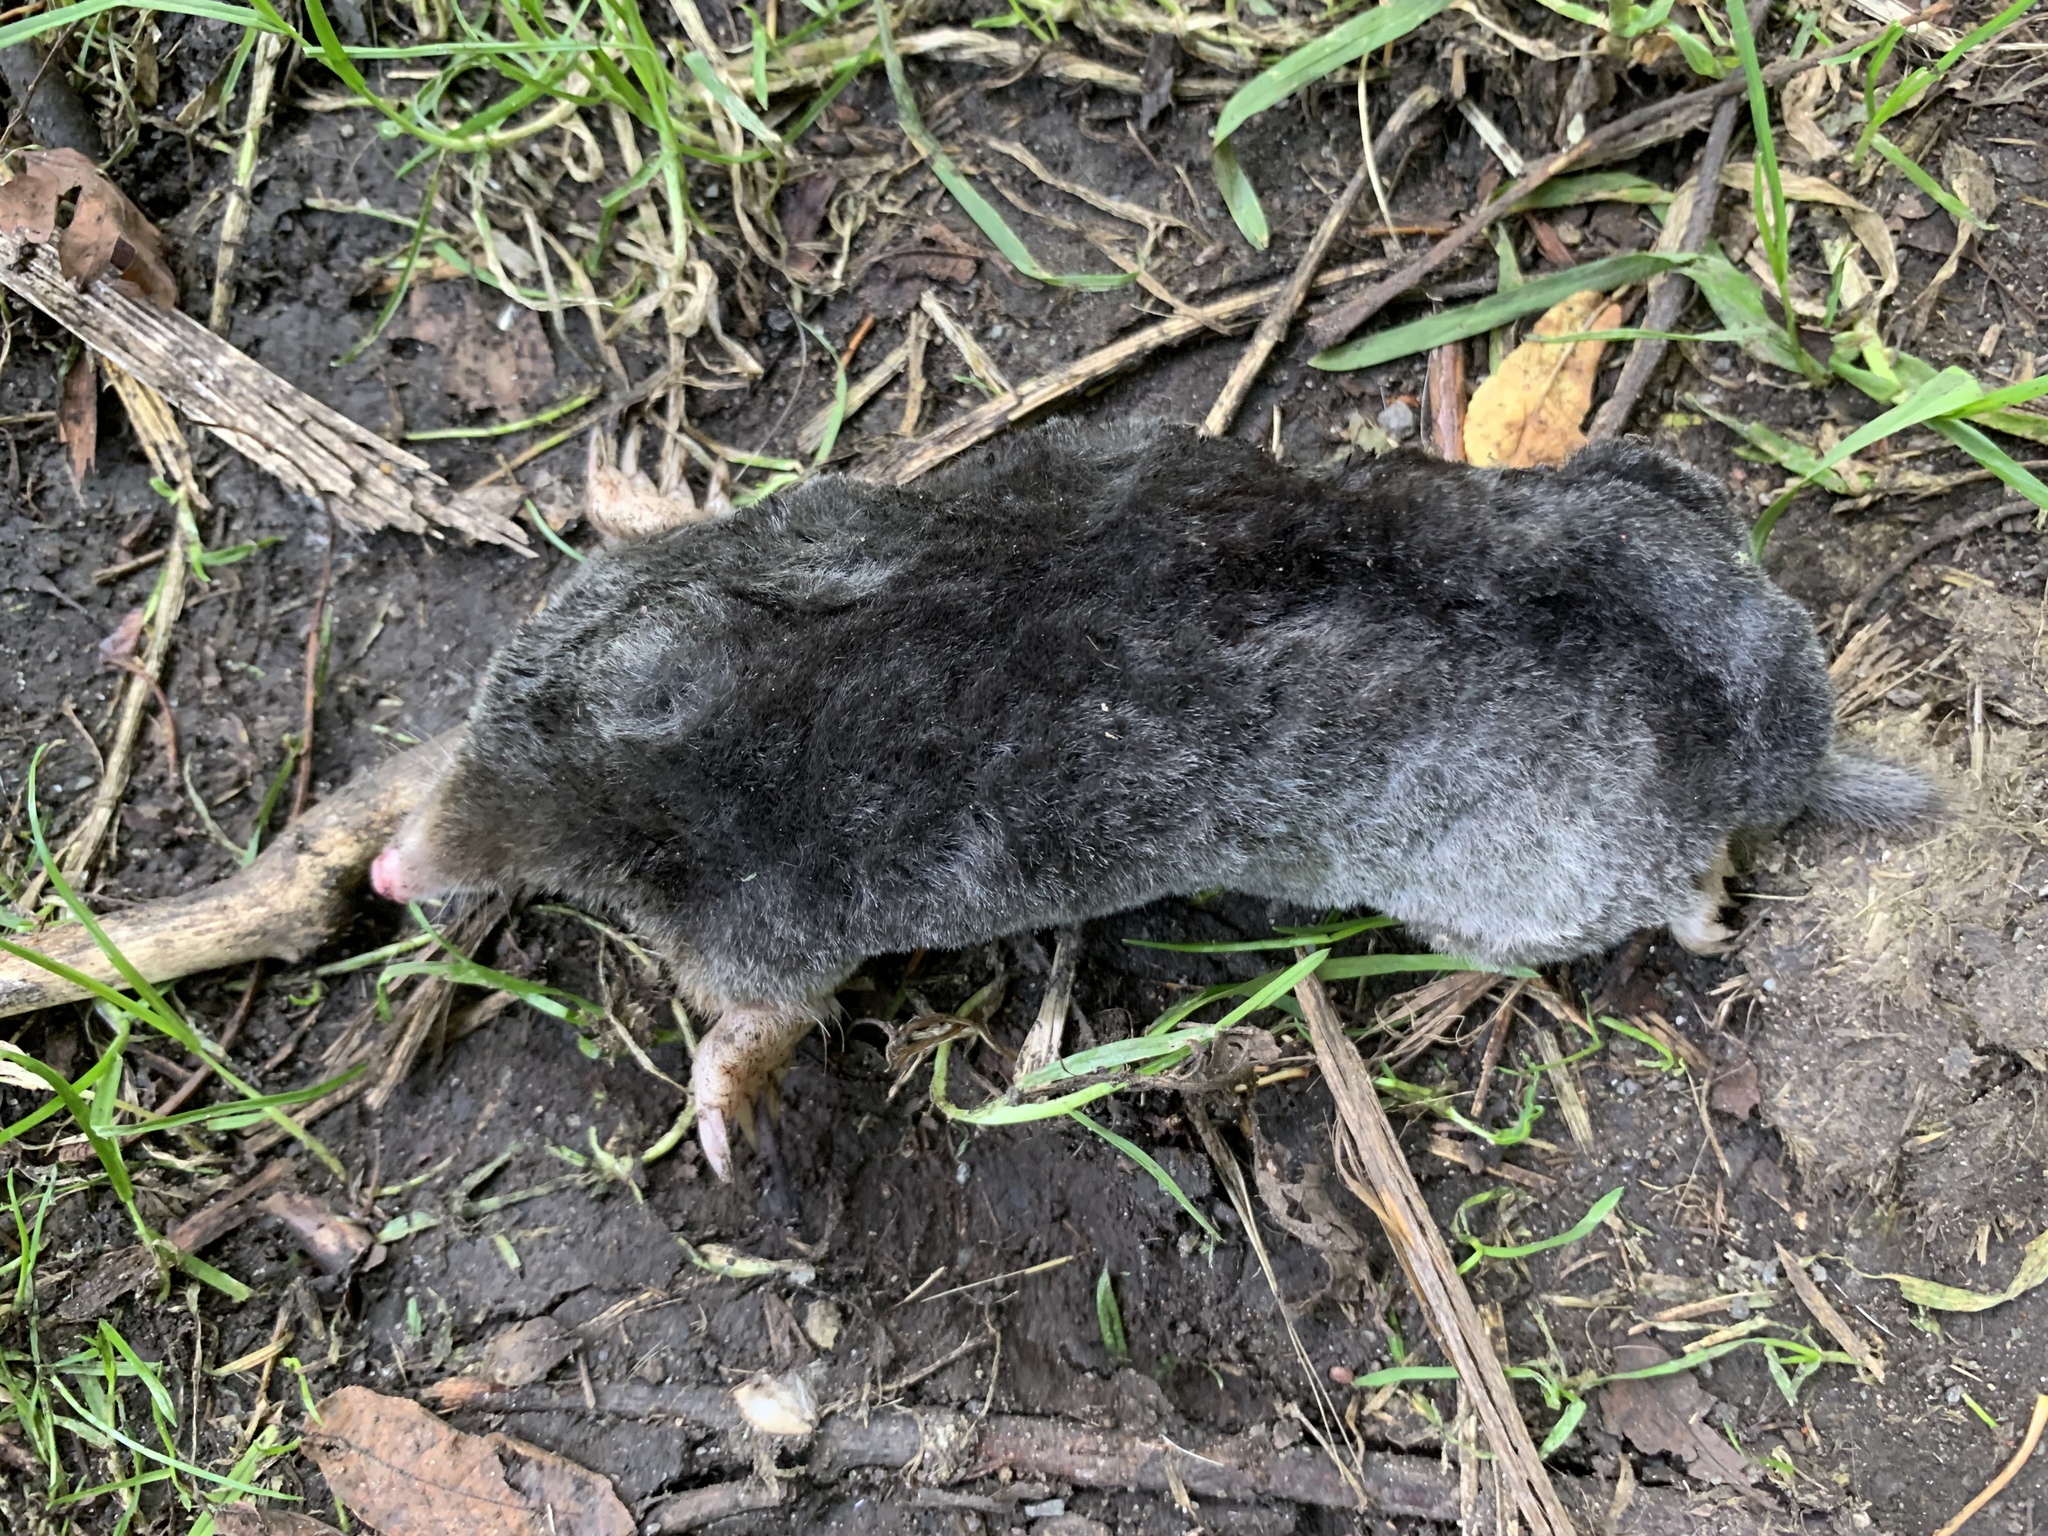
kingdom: Animalia
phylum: Chordata
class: Mammalia
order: Soricomorpha
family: Talpidae
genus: Talpa
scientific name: Talpa europaea
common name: European mole
